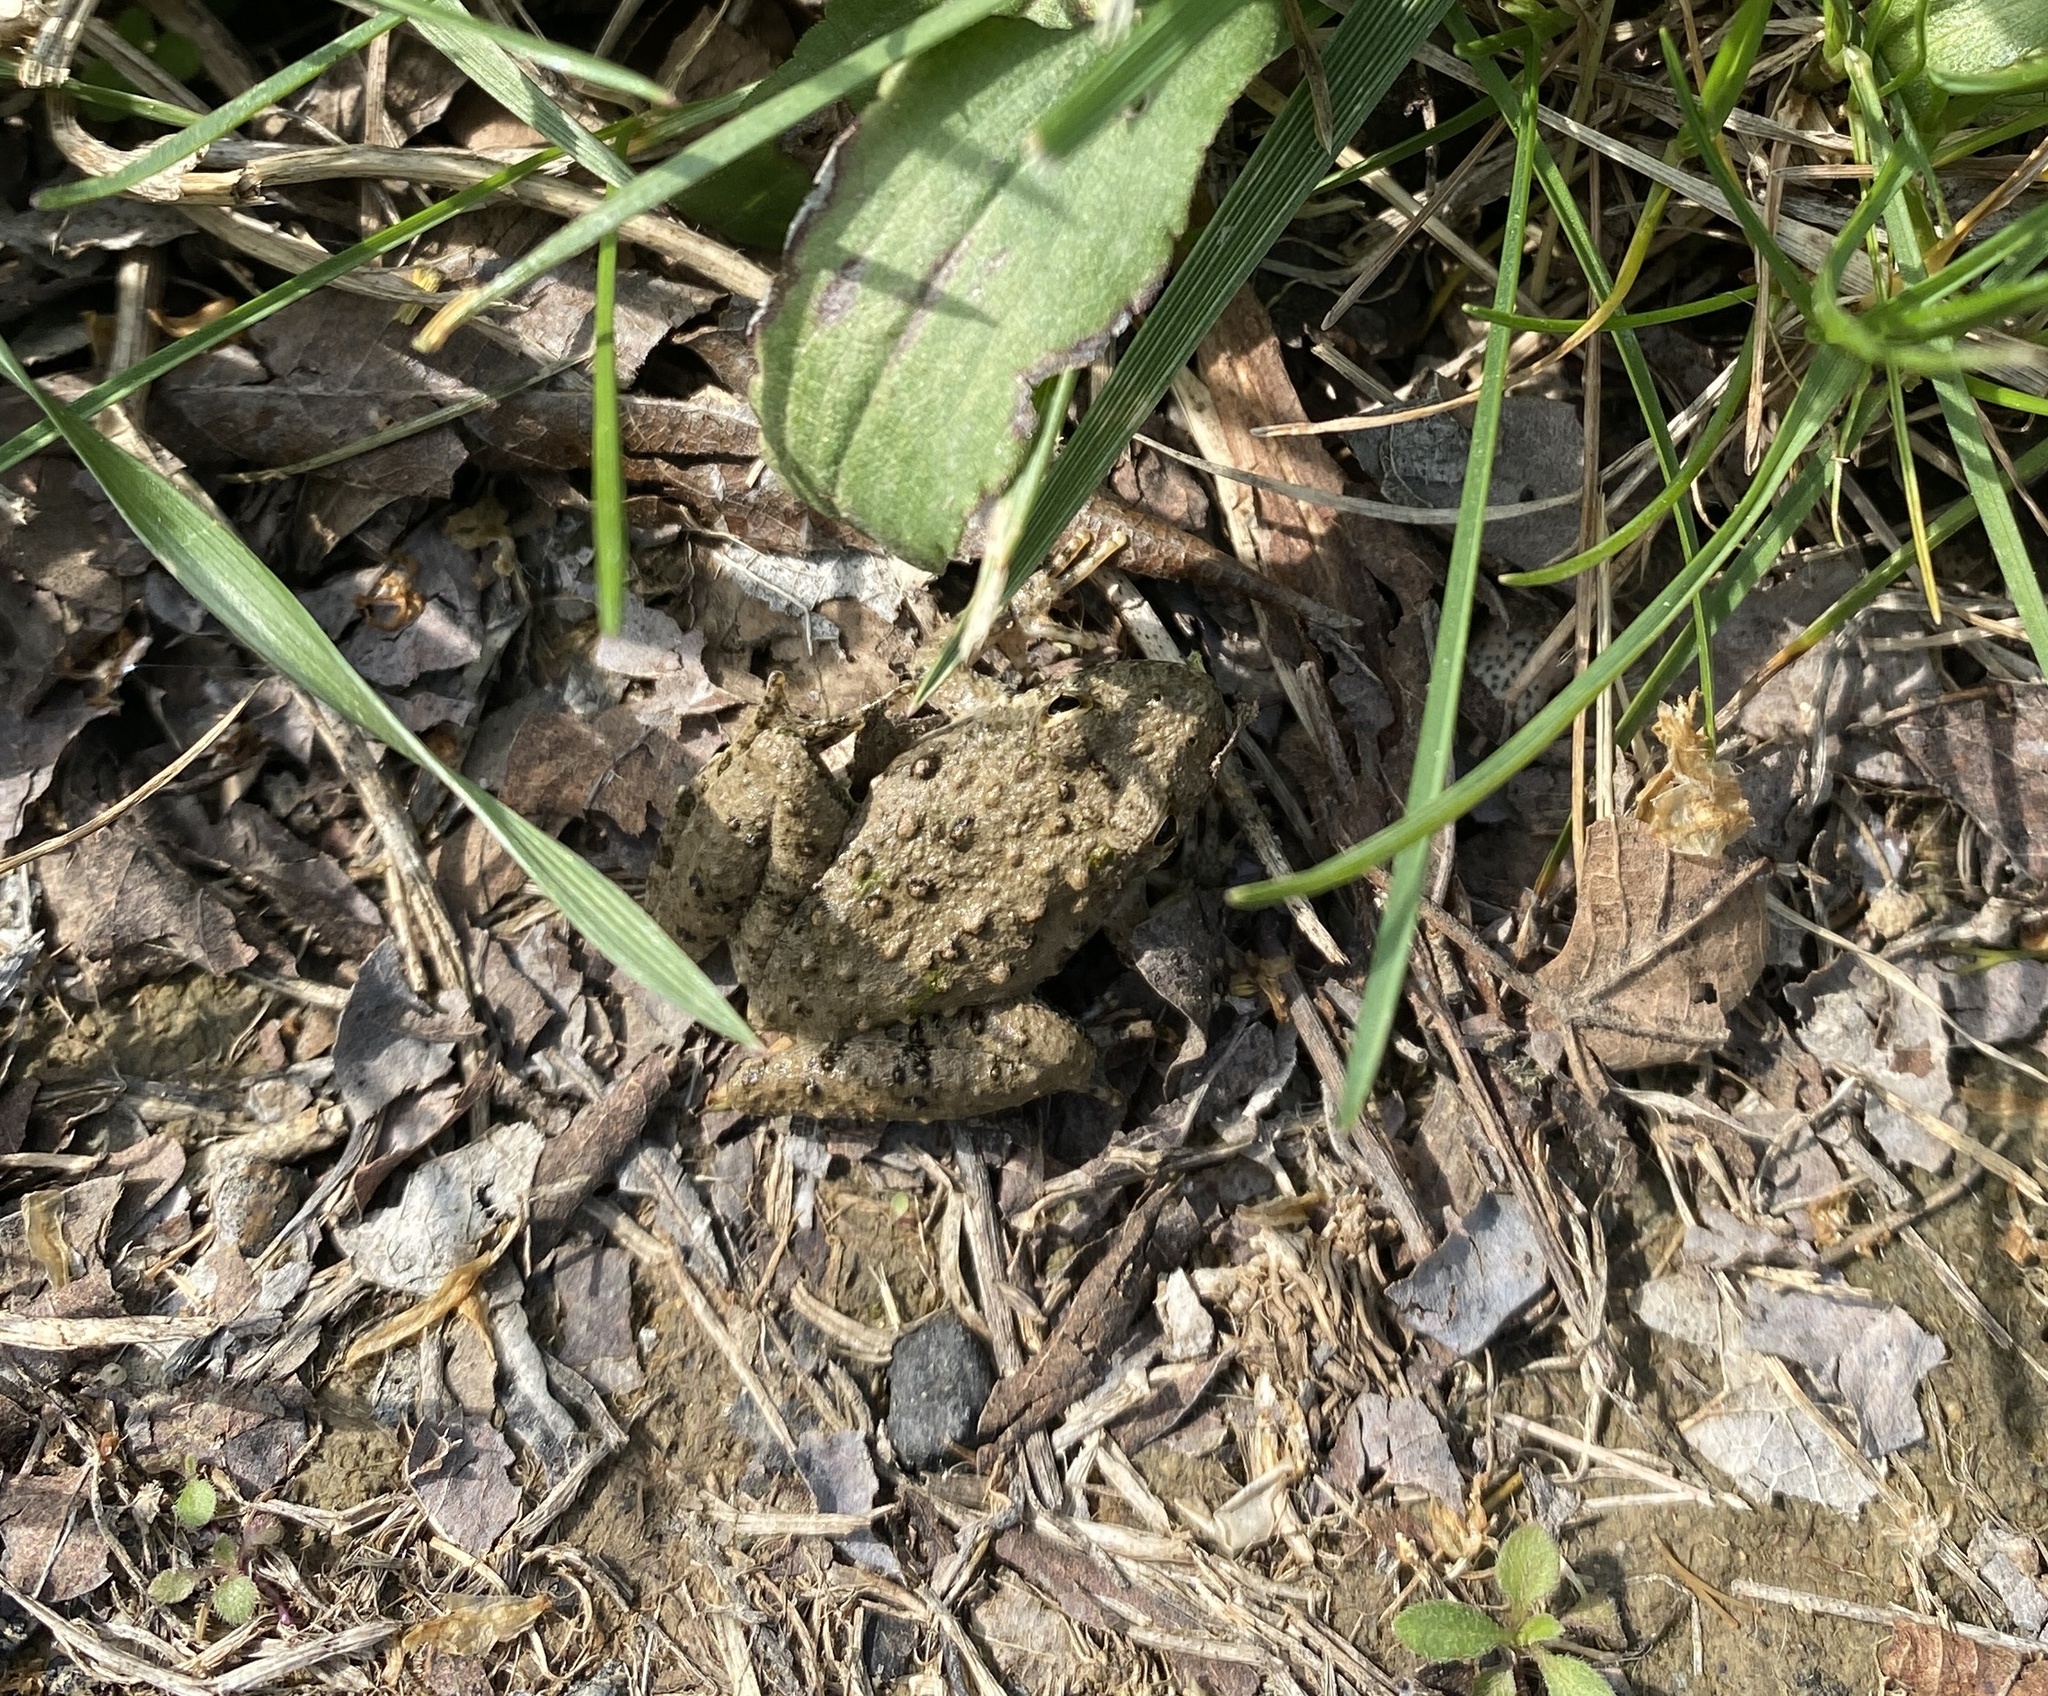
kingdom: Animalia
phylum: Chordata
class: Amphibia
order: Anura
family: Hylidae
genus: Acris
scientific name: Acris blanchardi
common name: Blanchard's cricket frog
